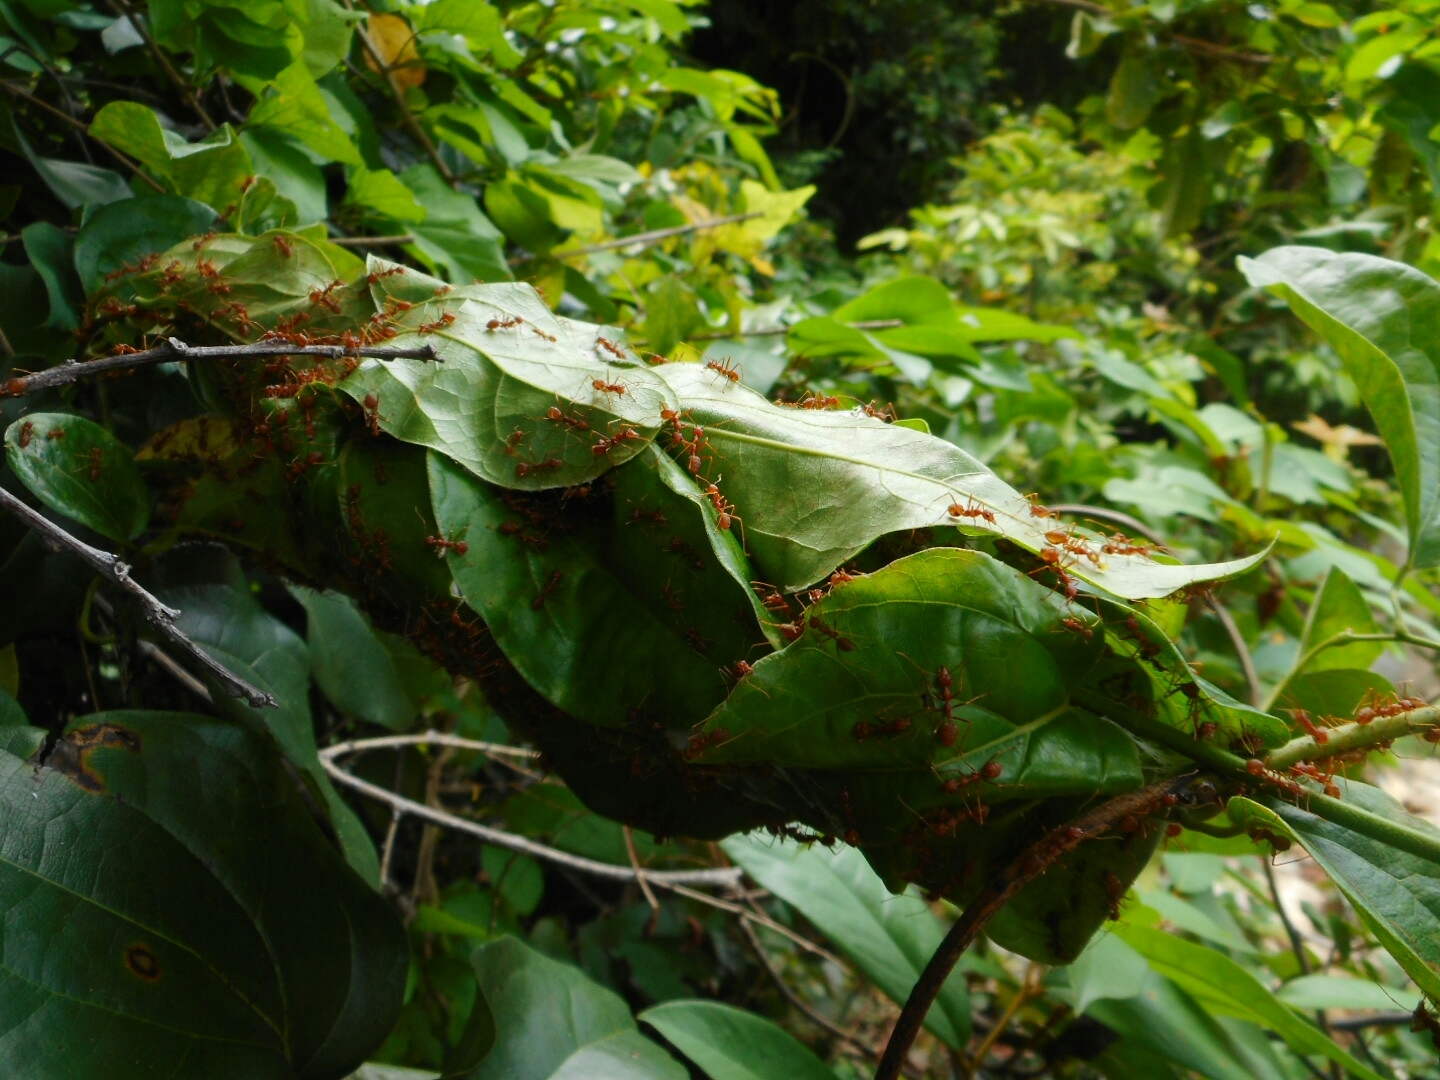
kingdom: Animalia
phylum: Arthropoda
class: Insecta
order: Hymenoptera
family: Formicidae
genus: Oecophylla
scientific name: Oecophylla smaragdina
